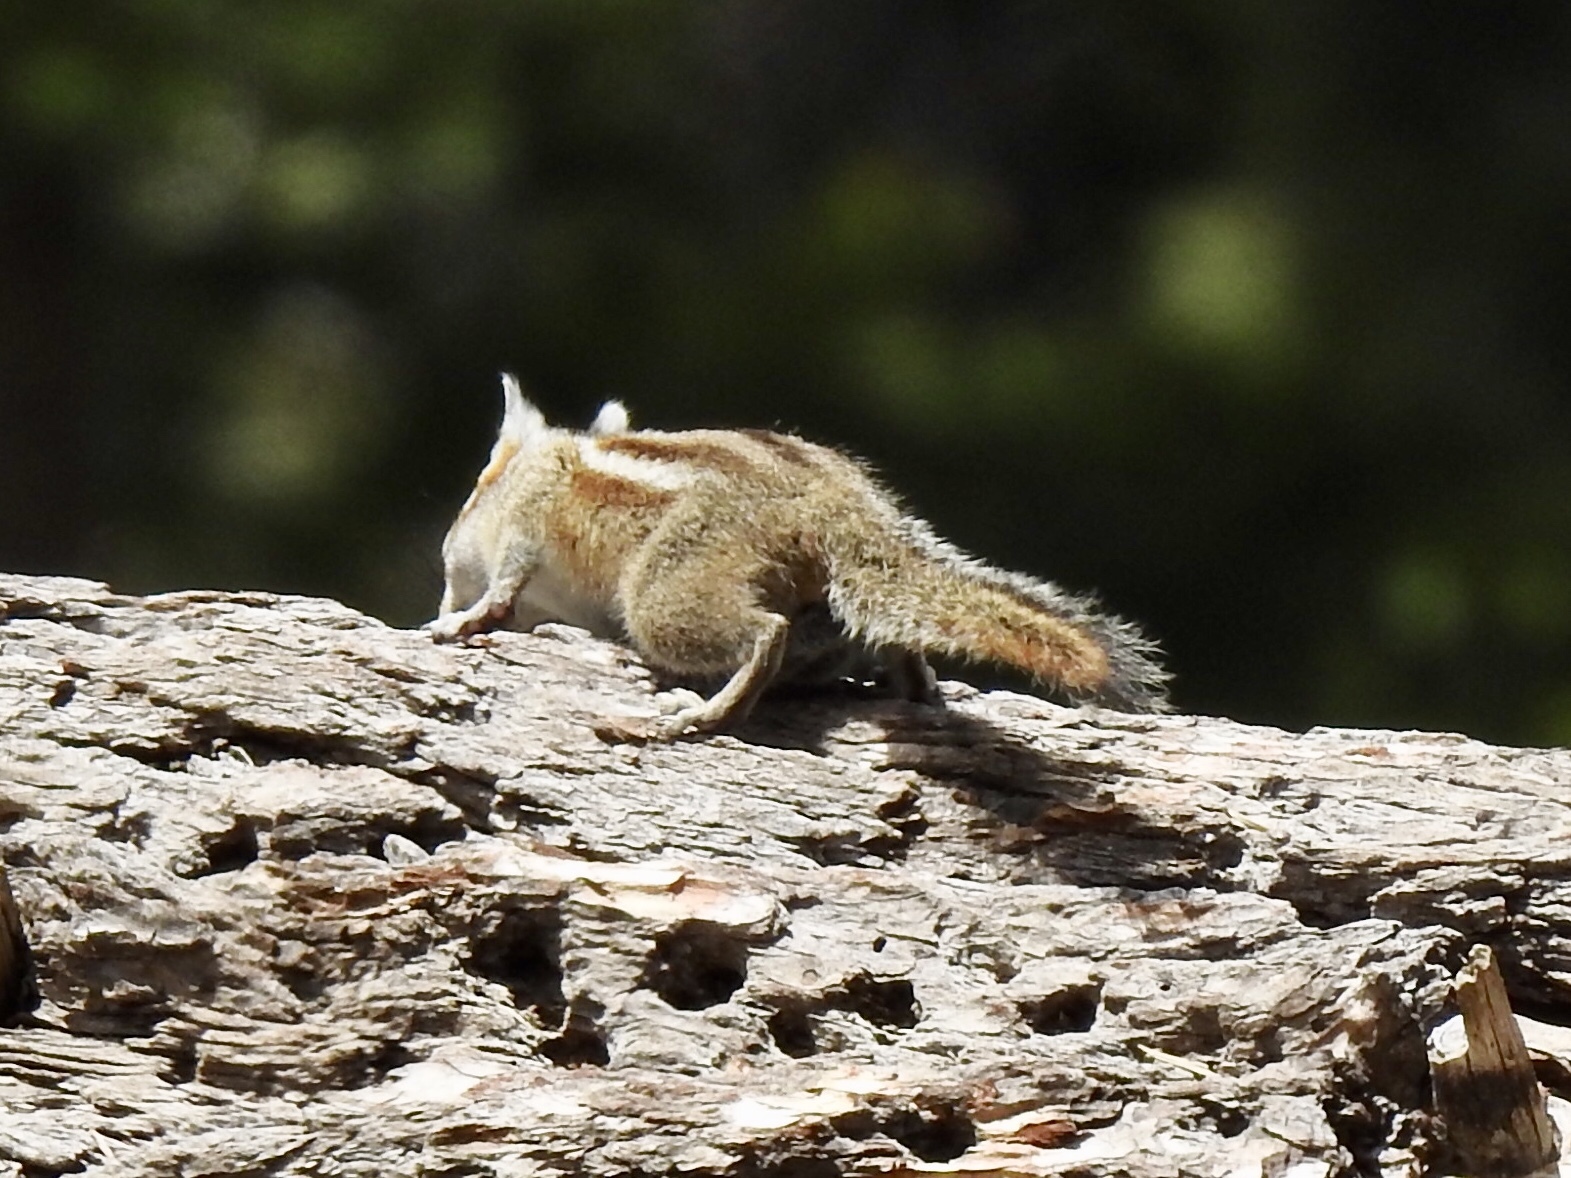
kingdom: Animalia
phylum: Chordata
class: Mammalia
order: Rodentia
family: Sciuridae
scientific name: Sciuridae
